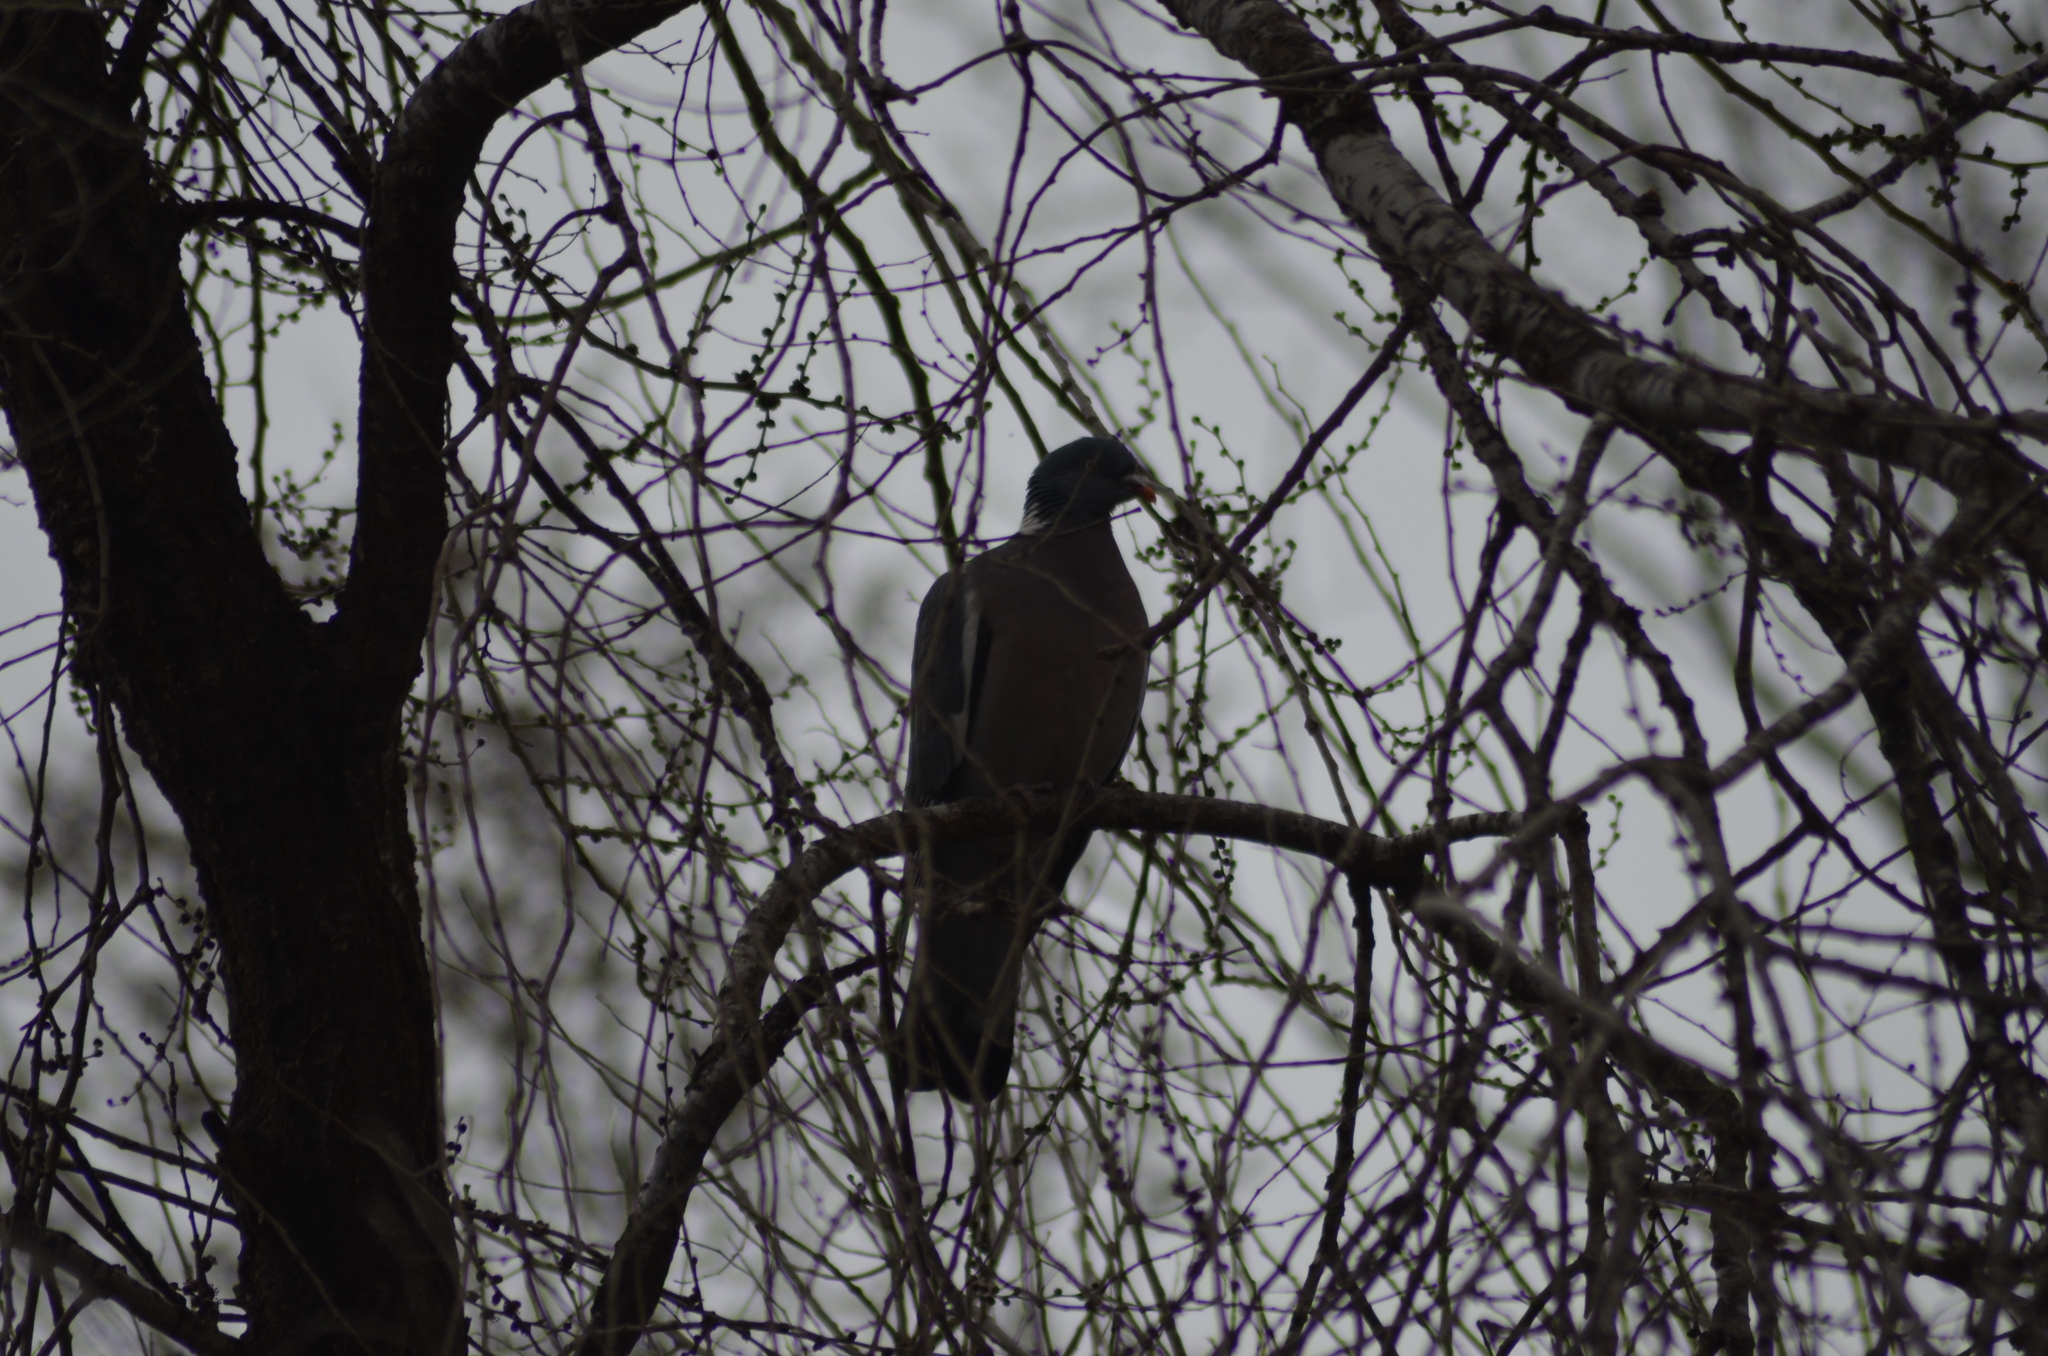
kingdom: Animalia
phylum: Chordata
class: Aves
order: Columbiformes
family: Columbidae
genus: Columba
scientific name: Columba palumbus
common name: Common wood pigeon
